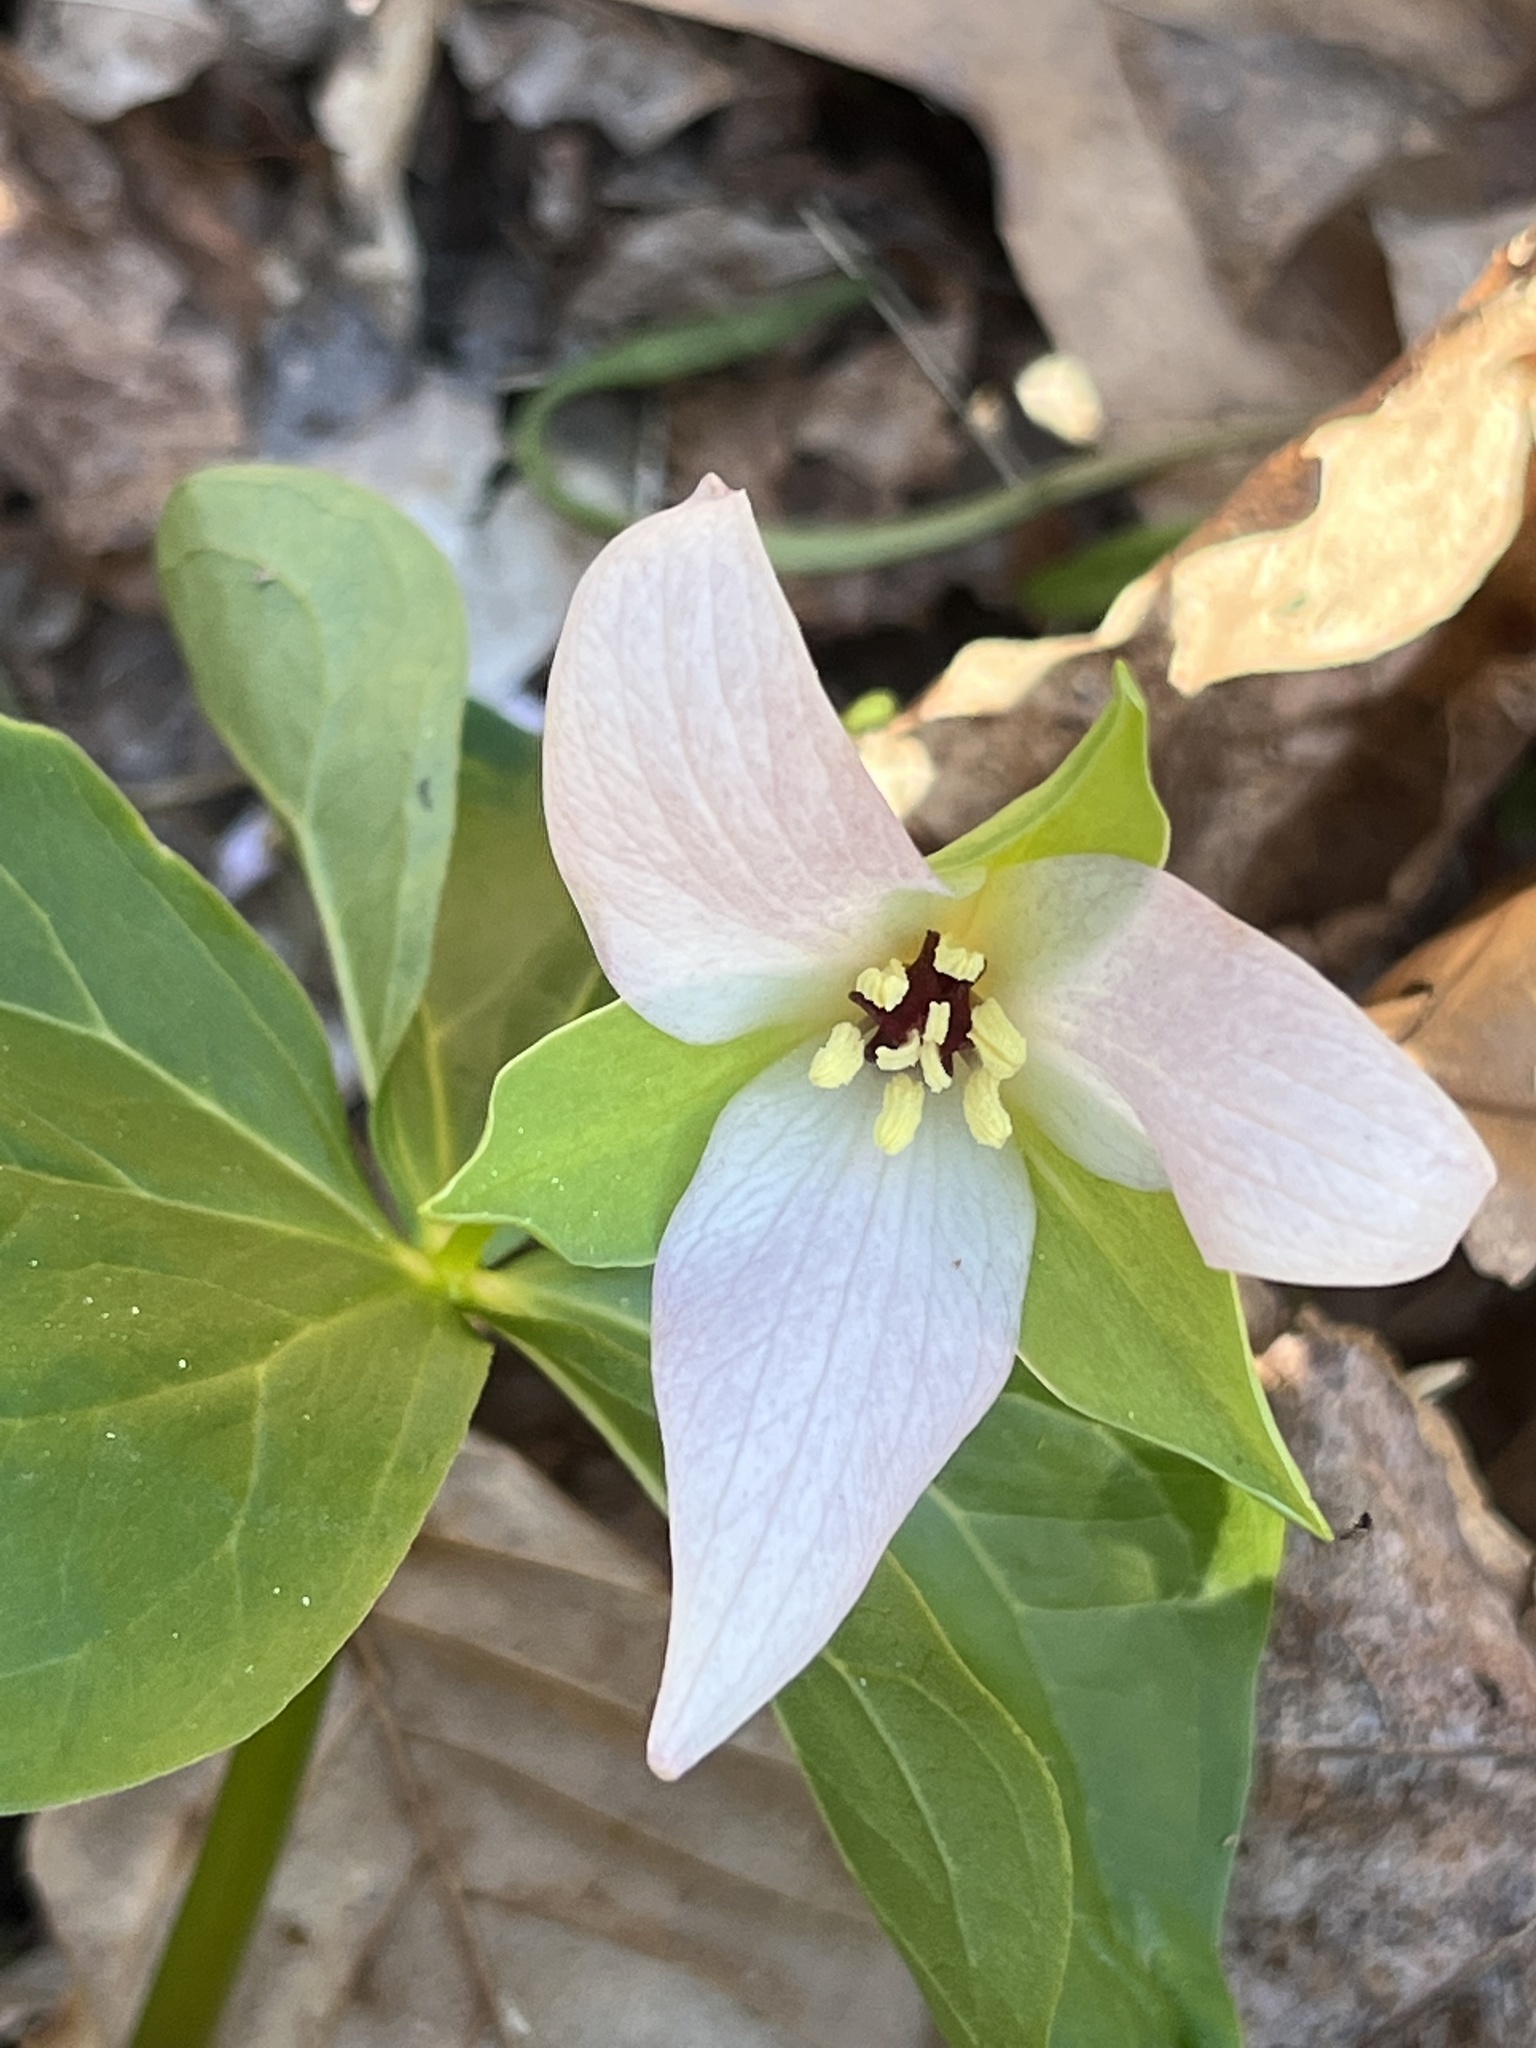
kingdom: Plantae
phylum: Tracheophyta
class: Liliopsida
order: Liliales
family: Melanthiaceae
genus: Trillium
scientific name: Trillium erectum
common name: Purple trillium
